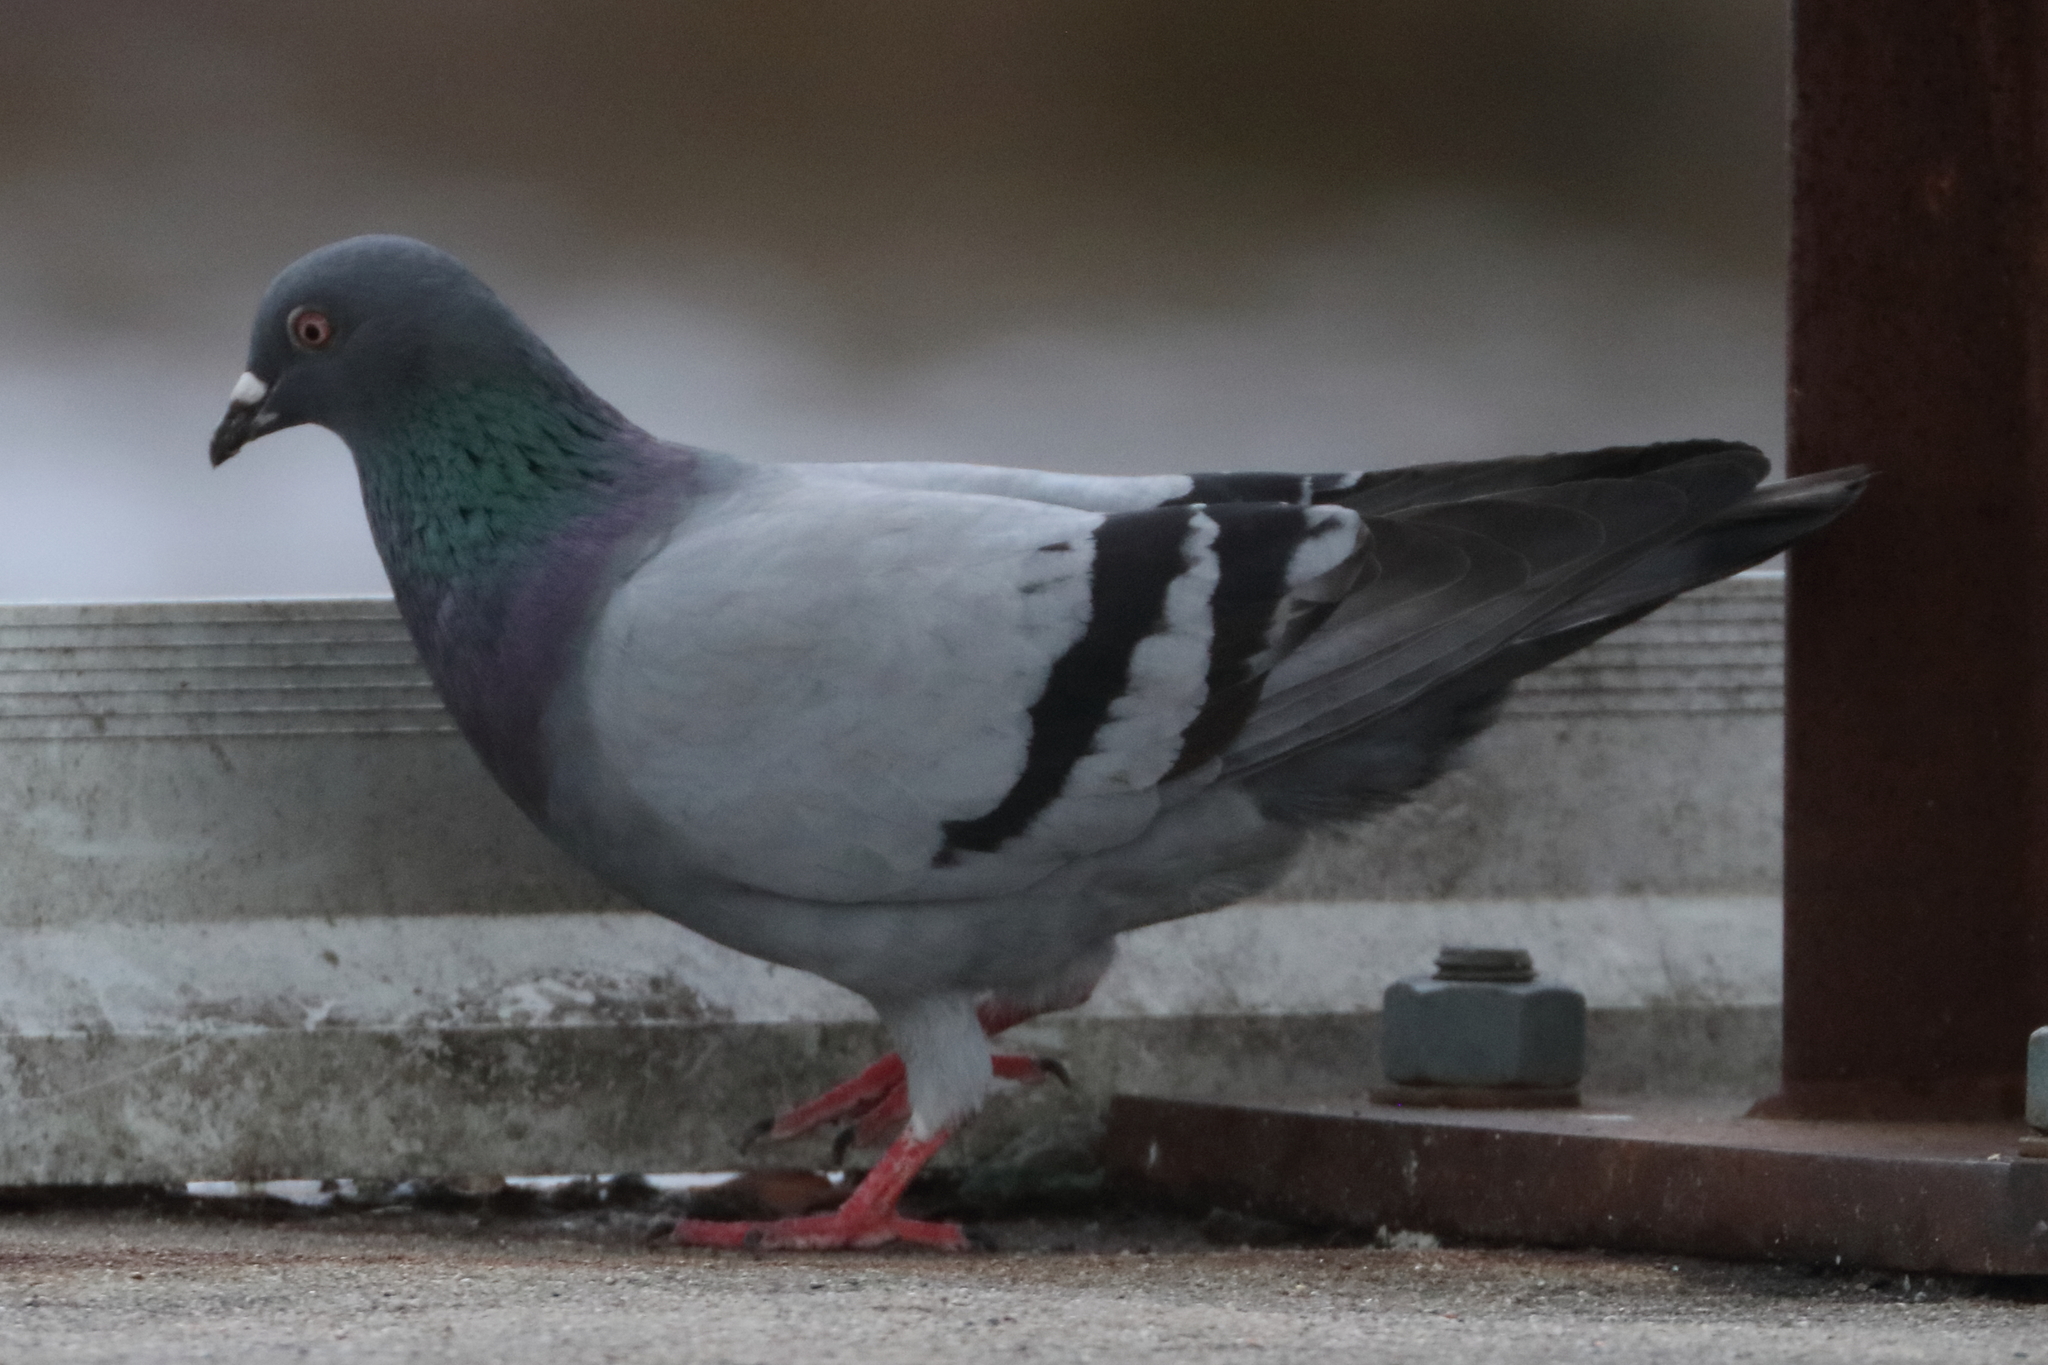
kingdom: Animalia
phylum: Chordata
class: Aves
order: Columbiformes
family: Columbidae
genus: Columba
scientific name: Columba livia
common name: Rock pigeon
